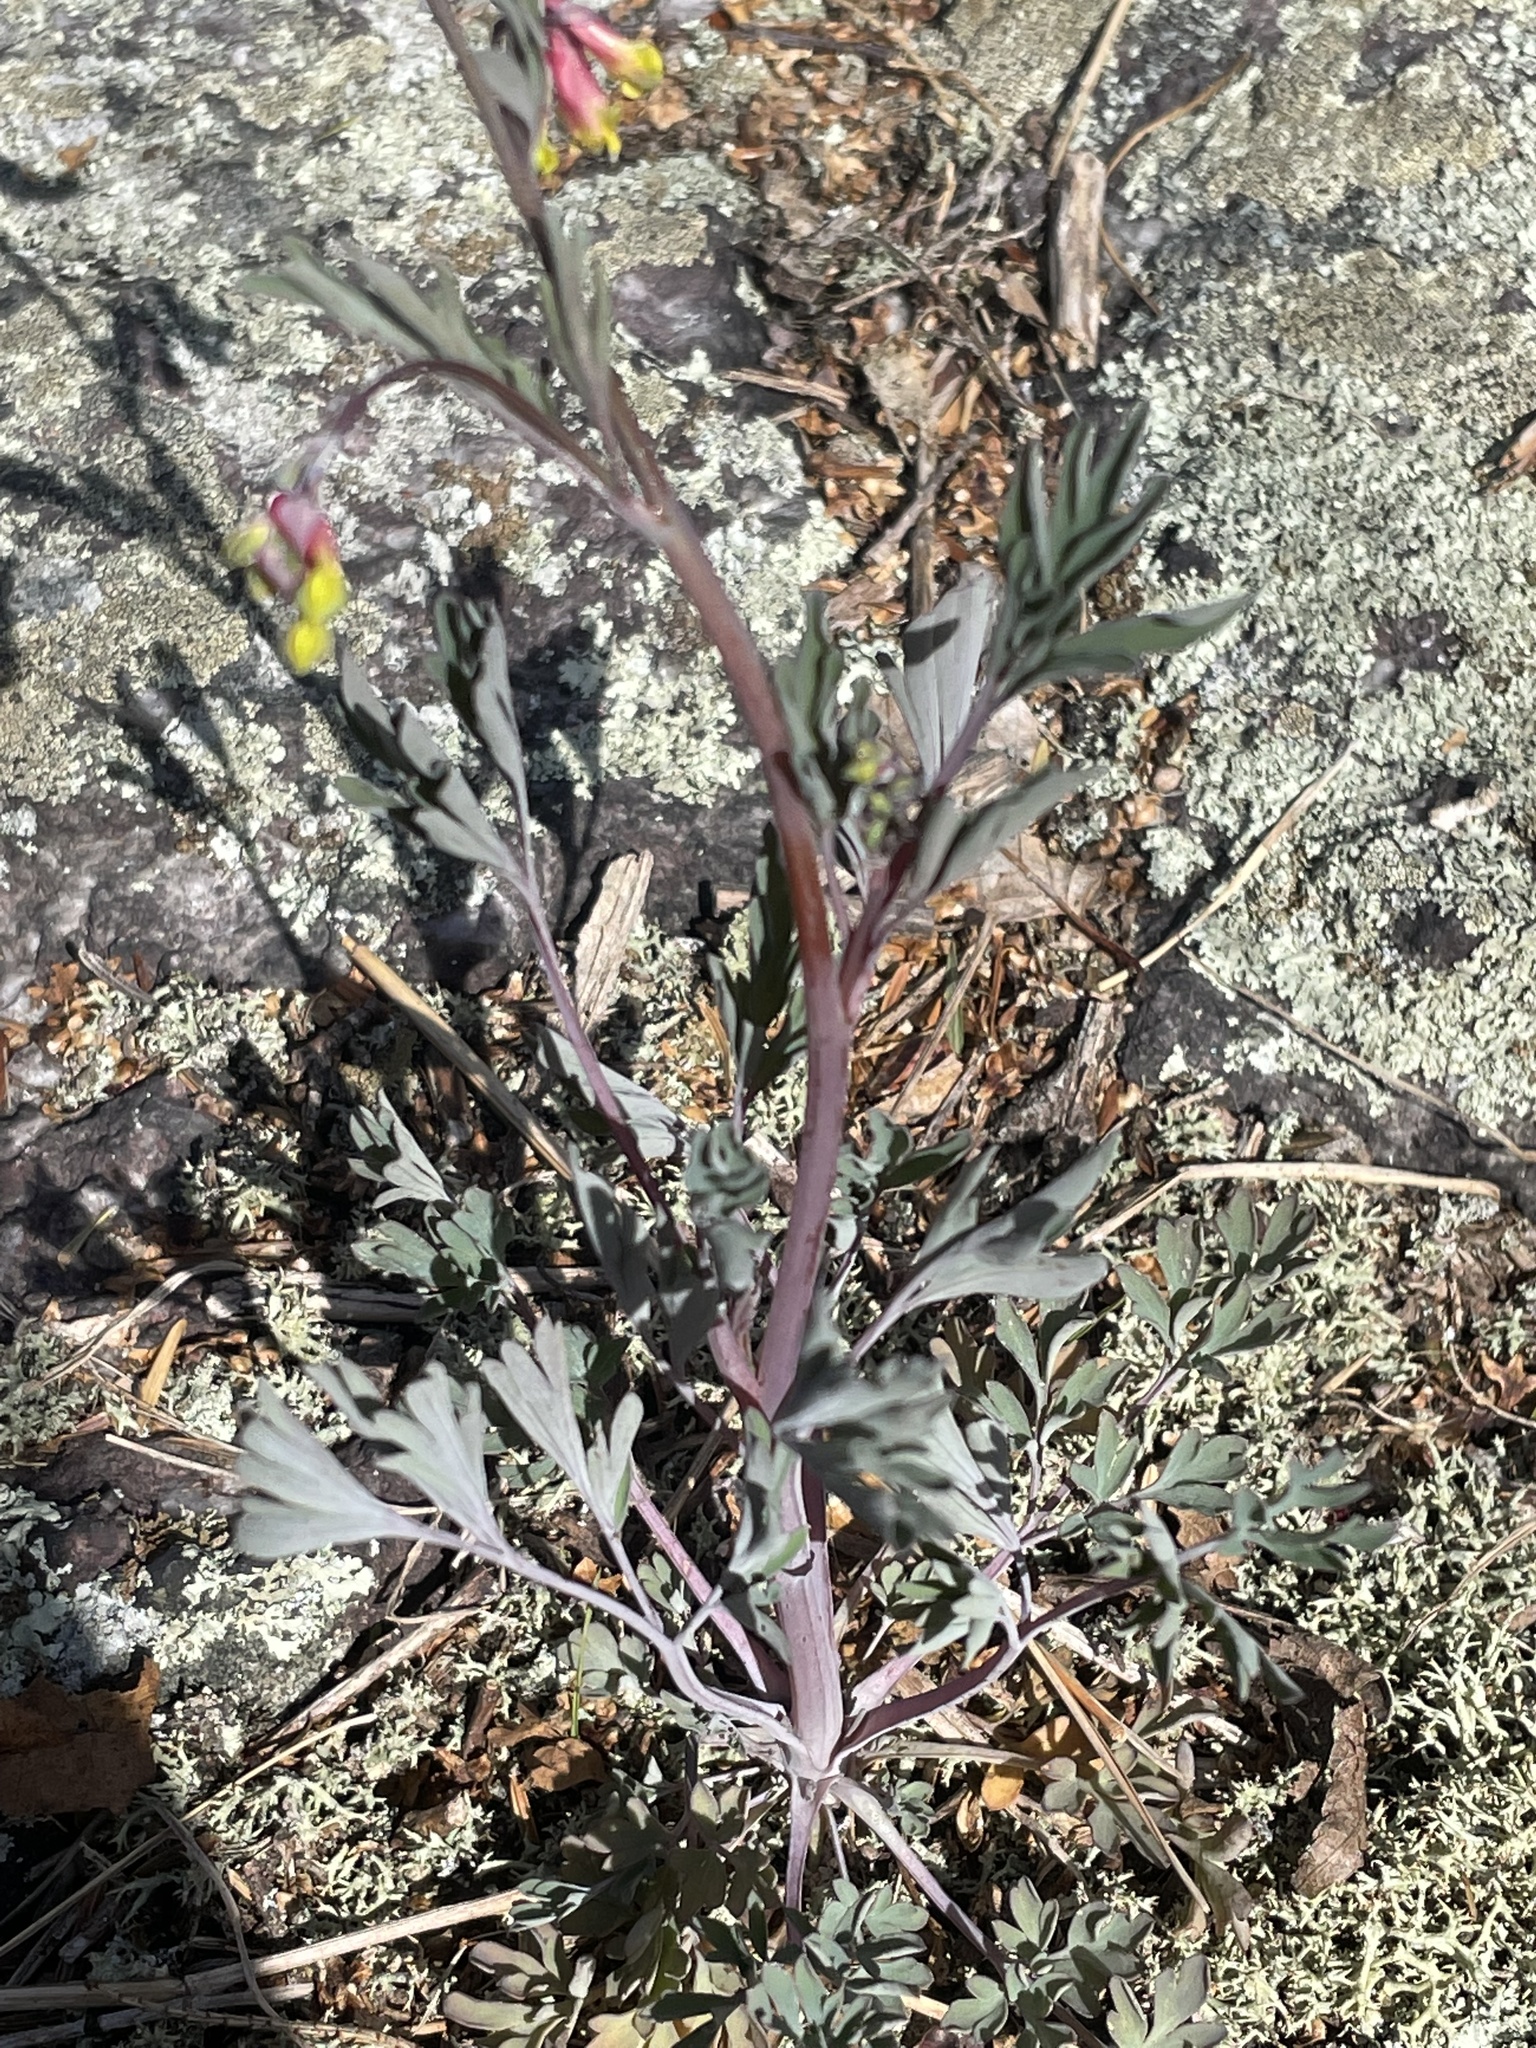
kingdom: Plantae
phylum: Tracheophyta
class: Magnoliopsida
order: Ranunculales
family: Papaveraceae
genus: Capnoides
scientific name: Capnoides sempervirens
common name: Rock harlequin
